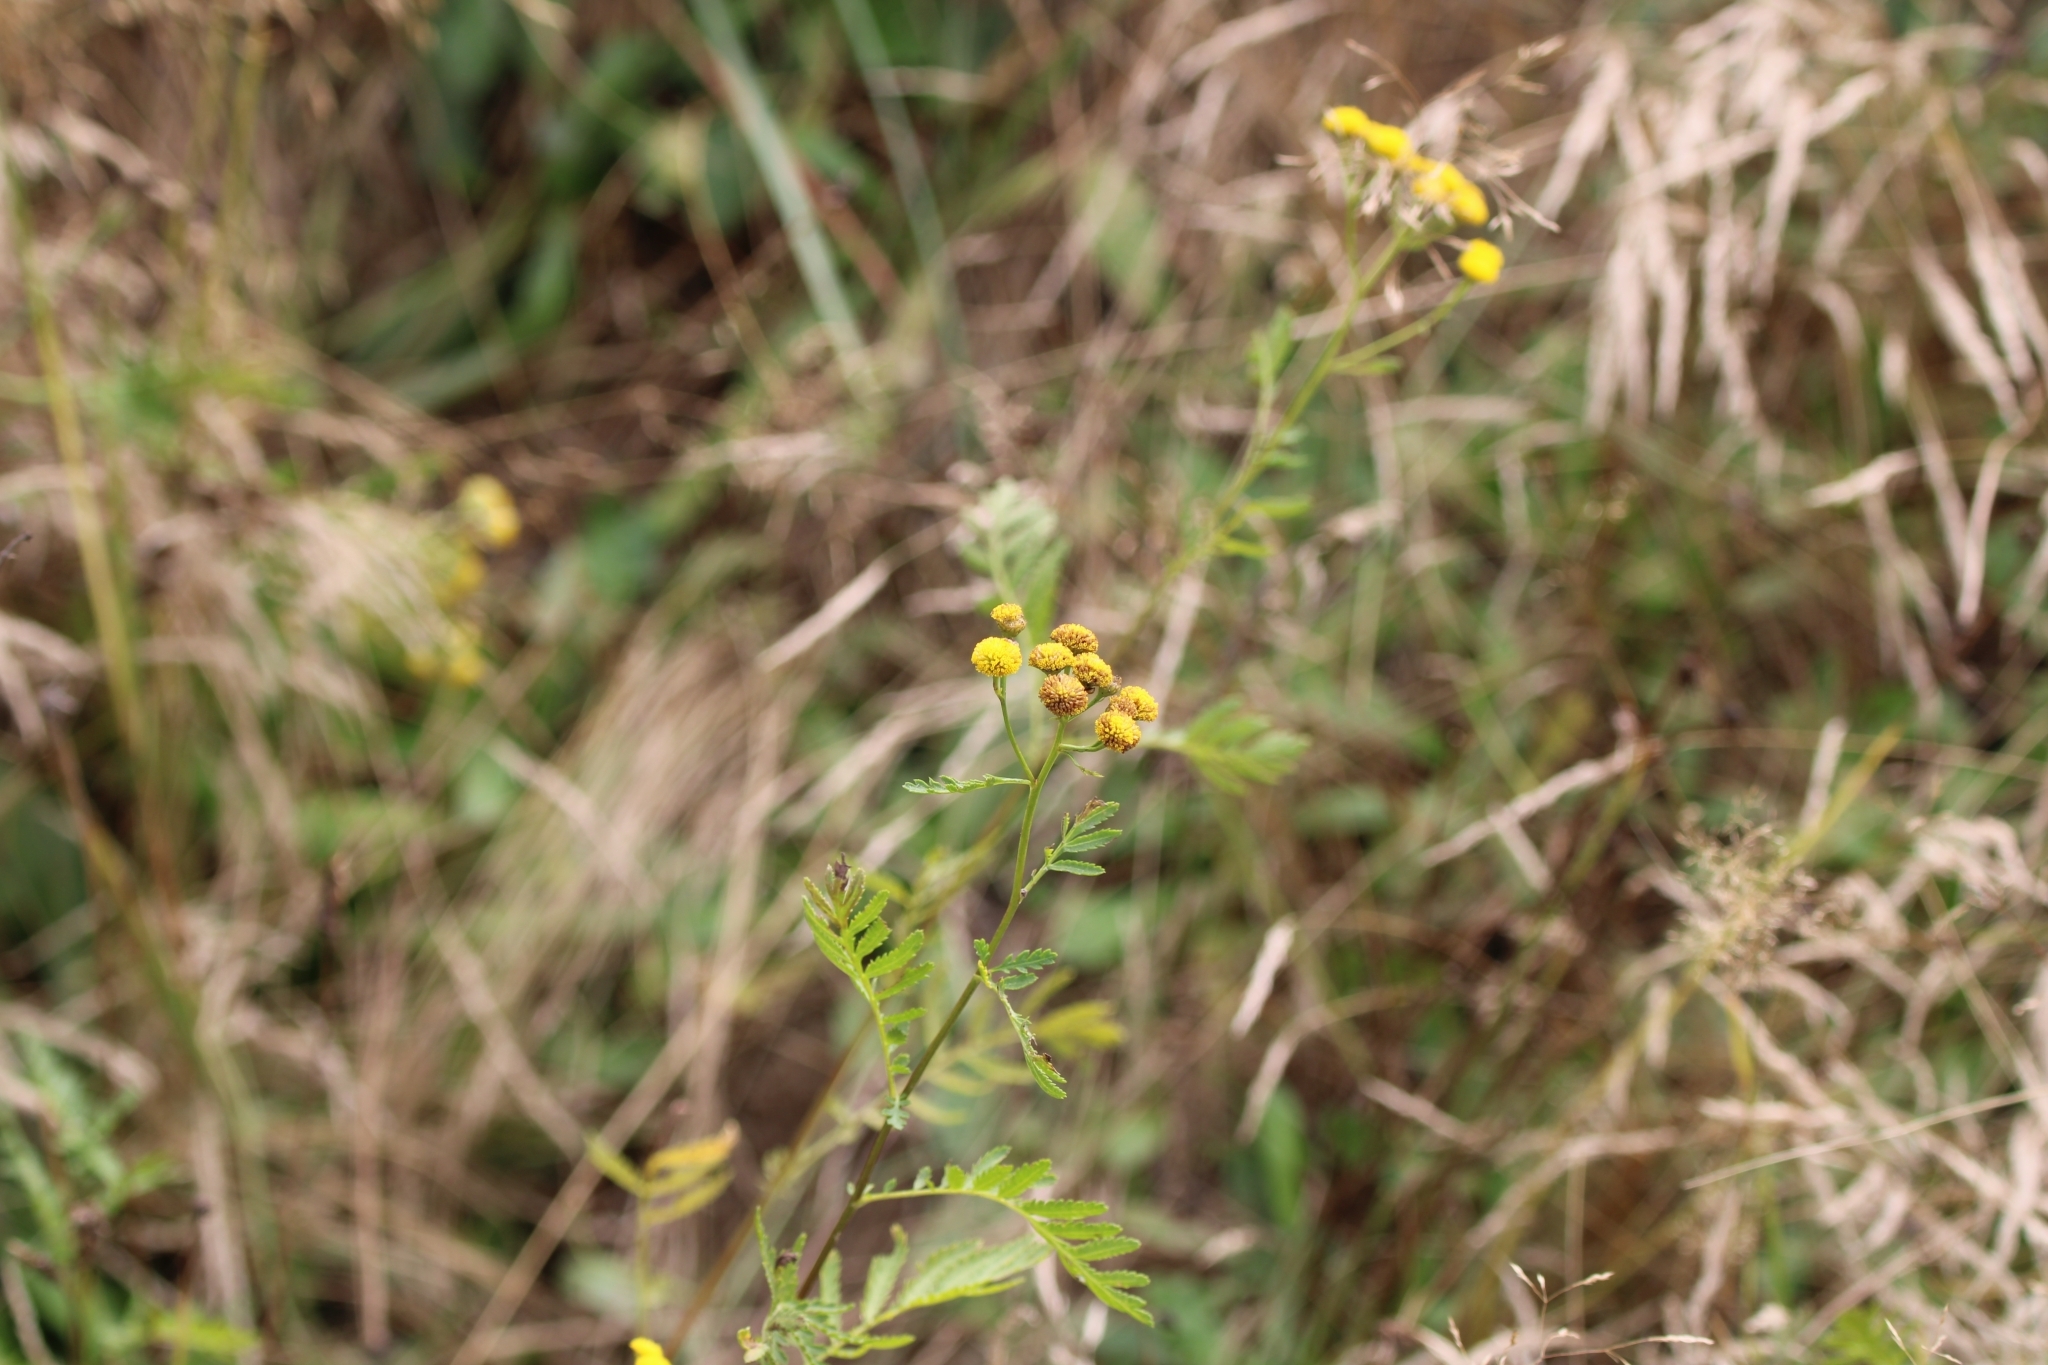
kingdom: Plantae
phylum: Tracheophyta
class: Magnoliopsida
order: Asterales
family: Asteraceae
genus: Tanacetum
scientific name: Tanacetum vulgare
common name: Common tansy
